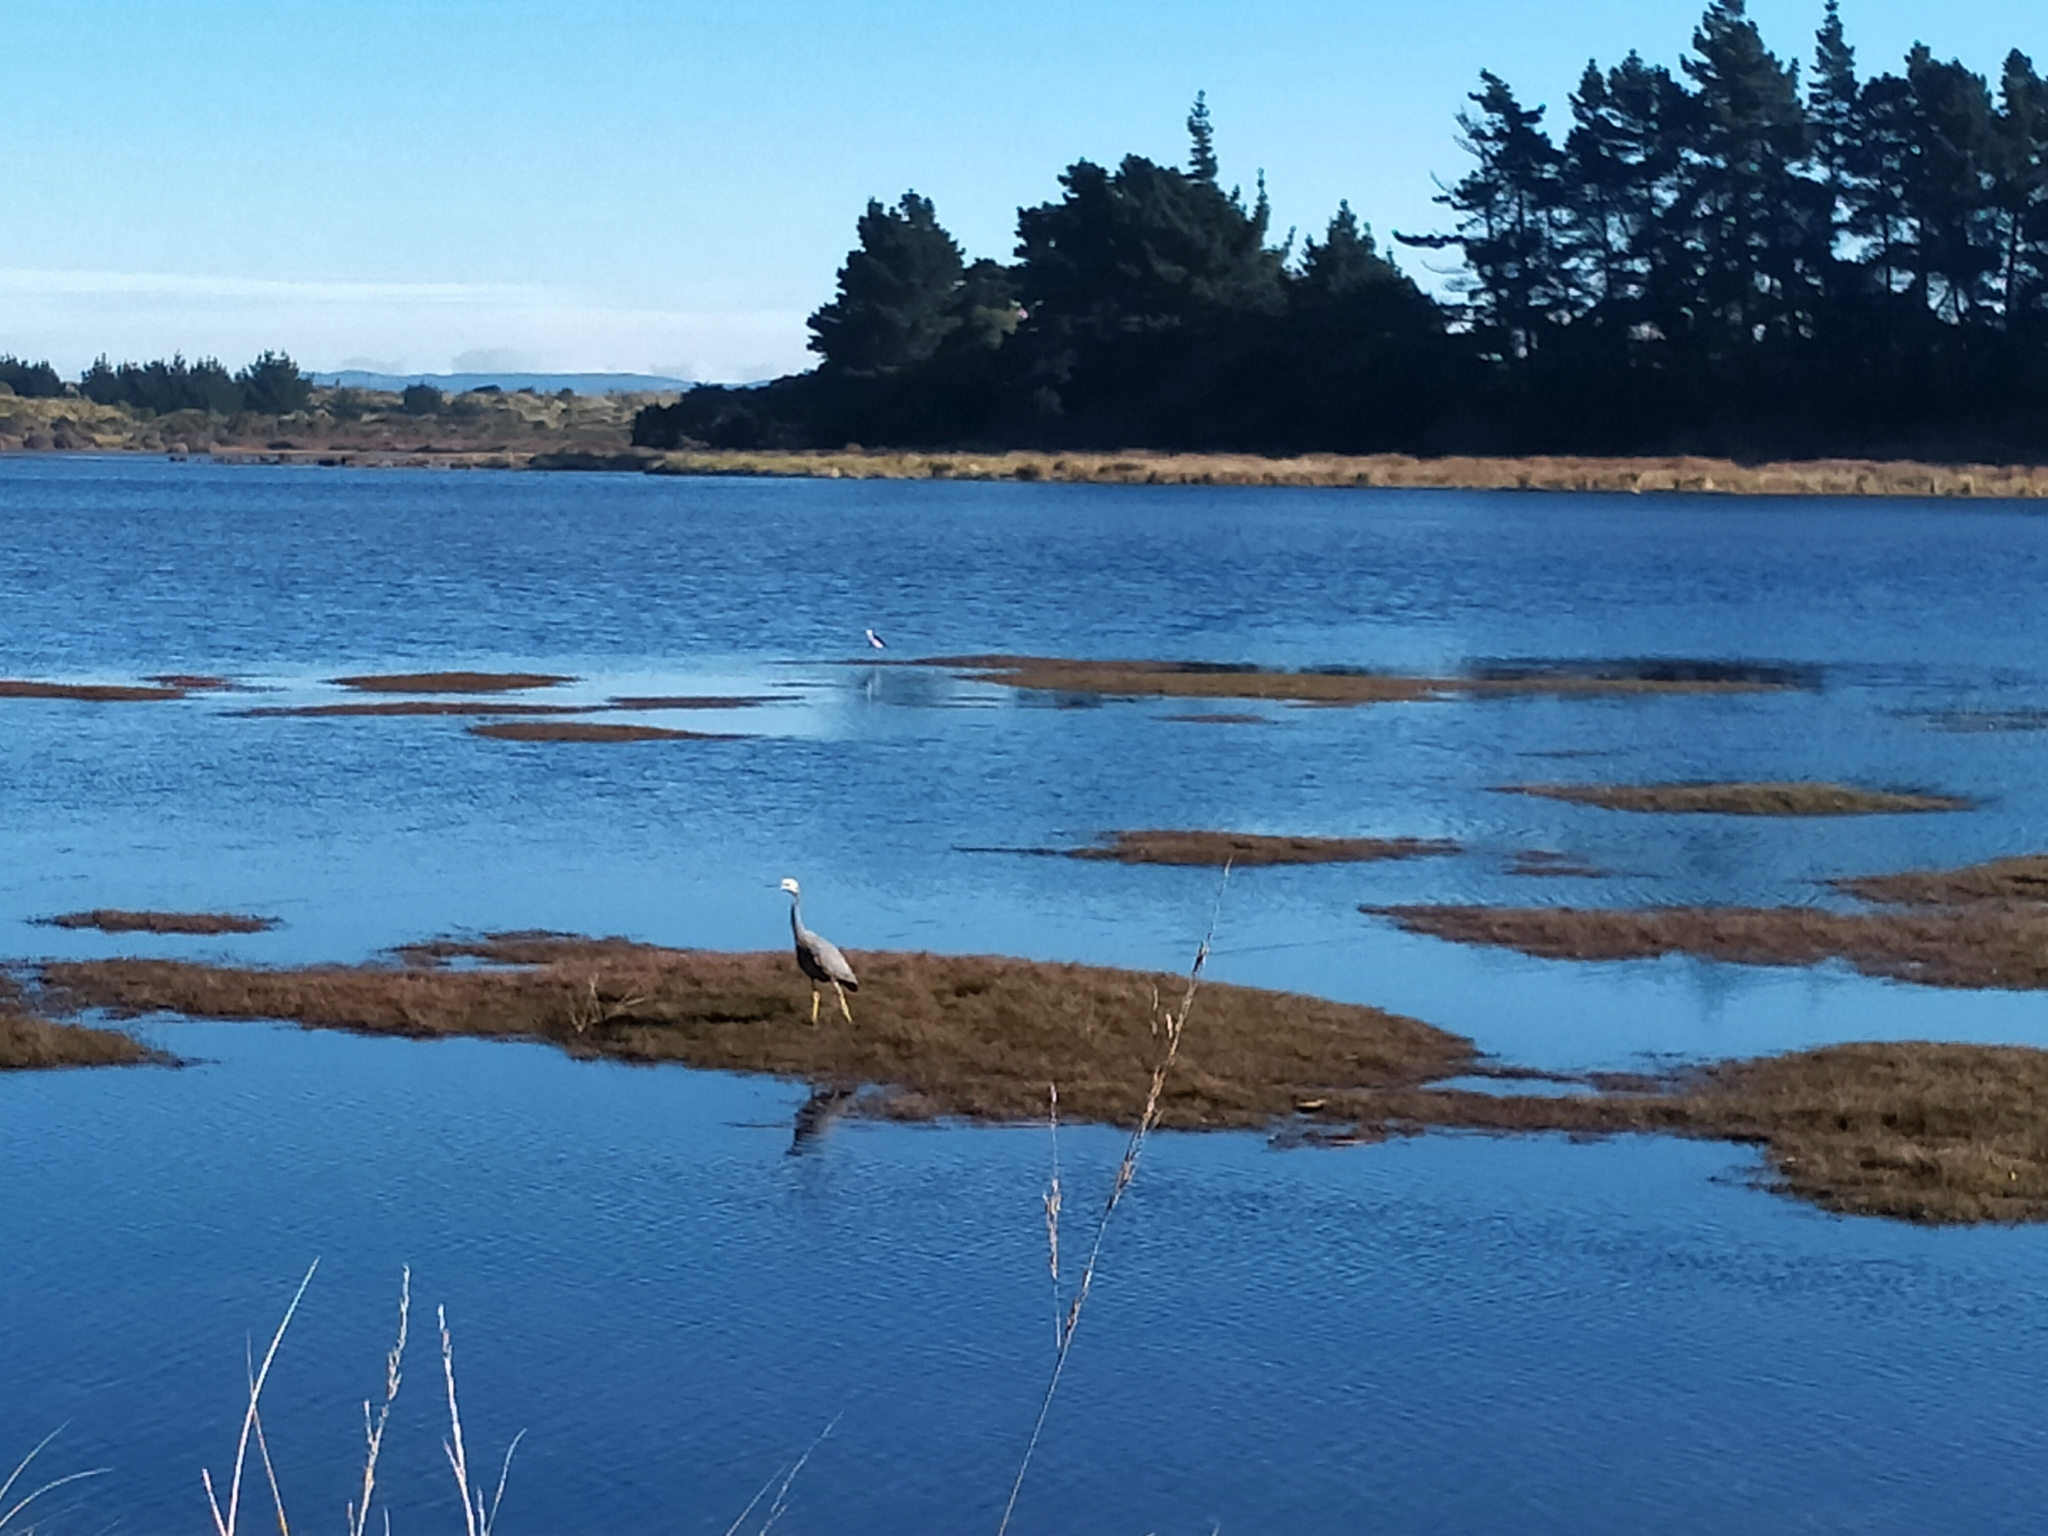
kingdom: Animalia
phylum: Chordata
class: Aves
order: Pelecaniformes
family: Ardeidae
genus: Egretta
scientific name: Egretta novaehollandiae
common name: White-faced heron
